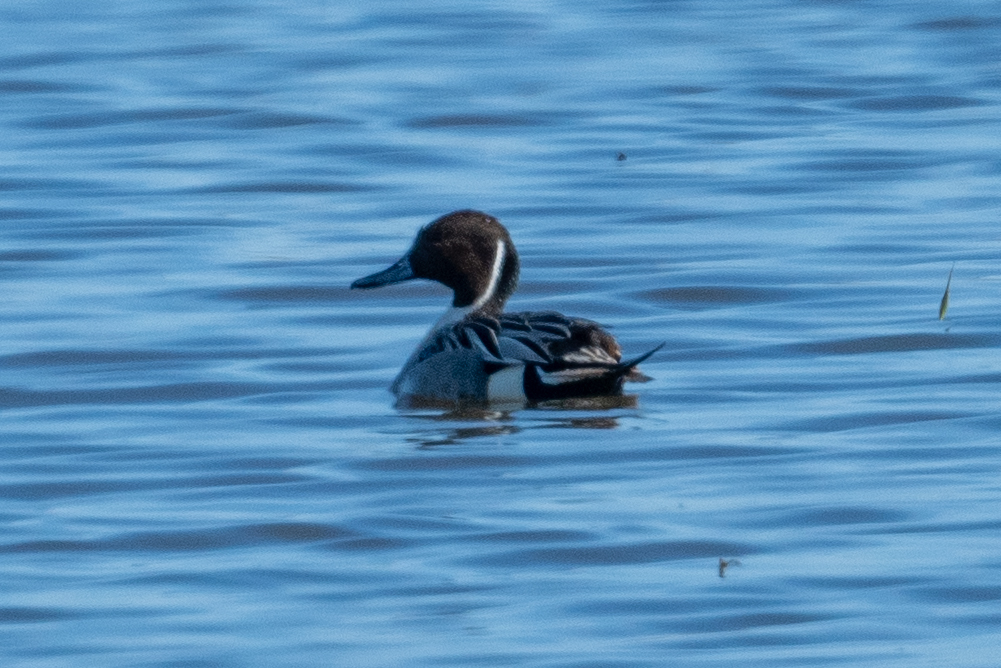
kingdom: Animalia
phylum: Chordata
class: Aves
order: Anseriformes
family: Anatidae
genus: Anas
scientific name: Anas acuta
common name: Northern pintail
